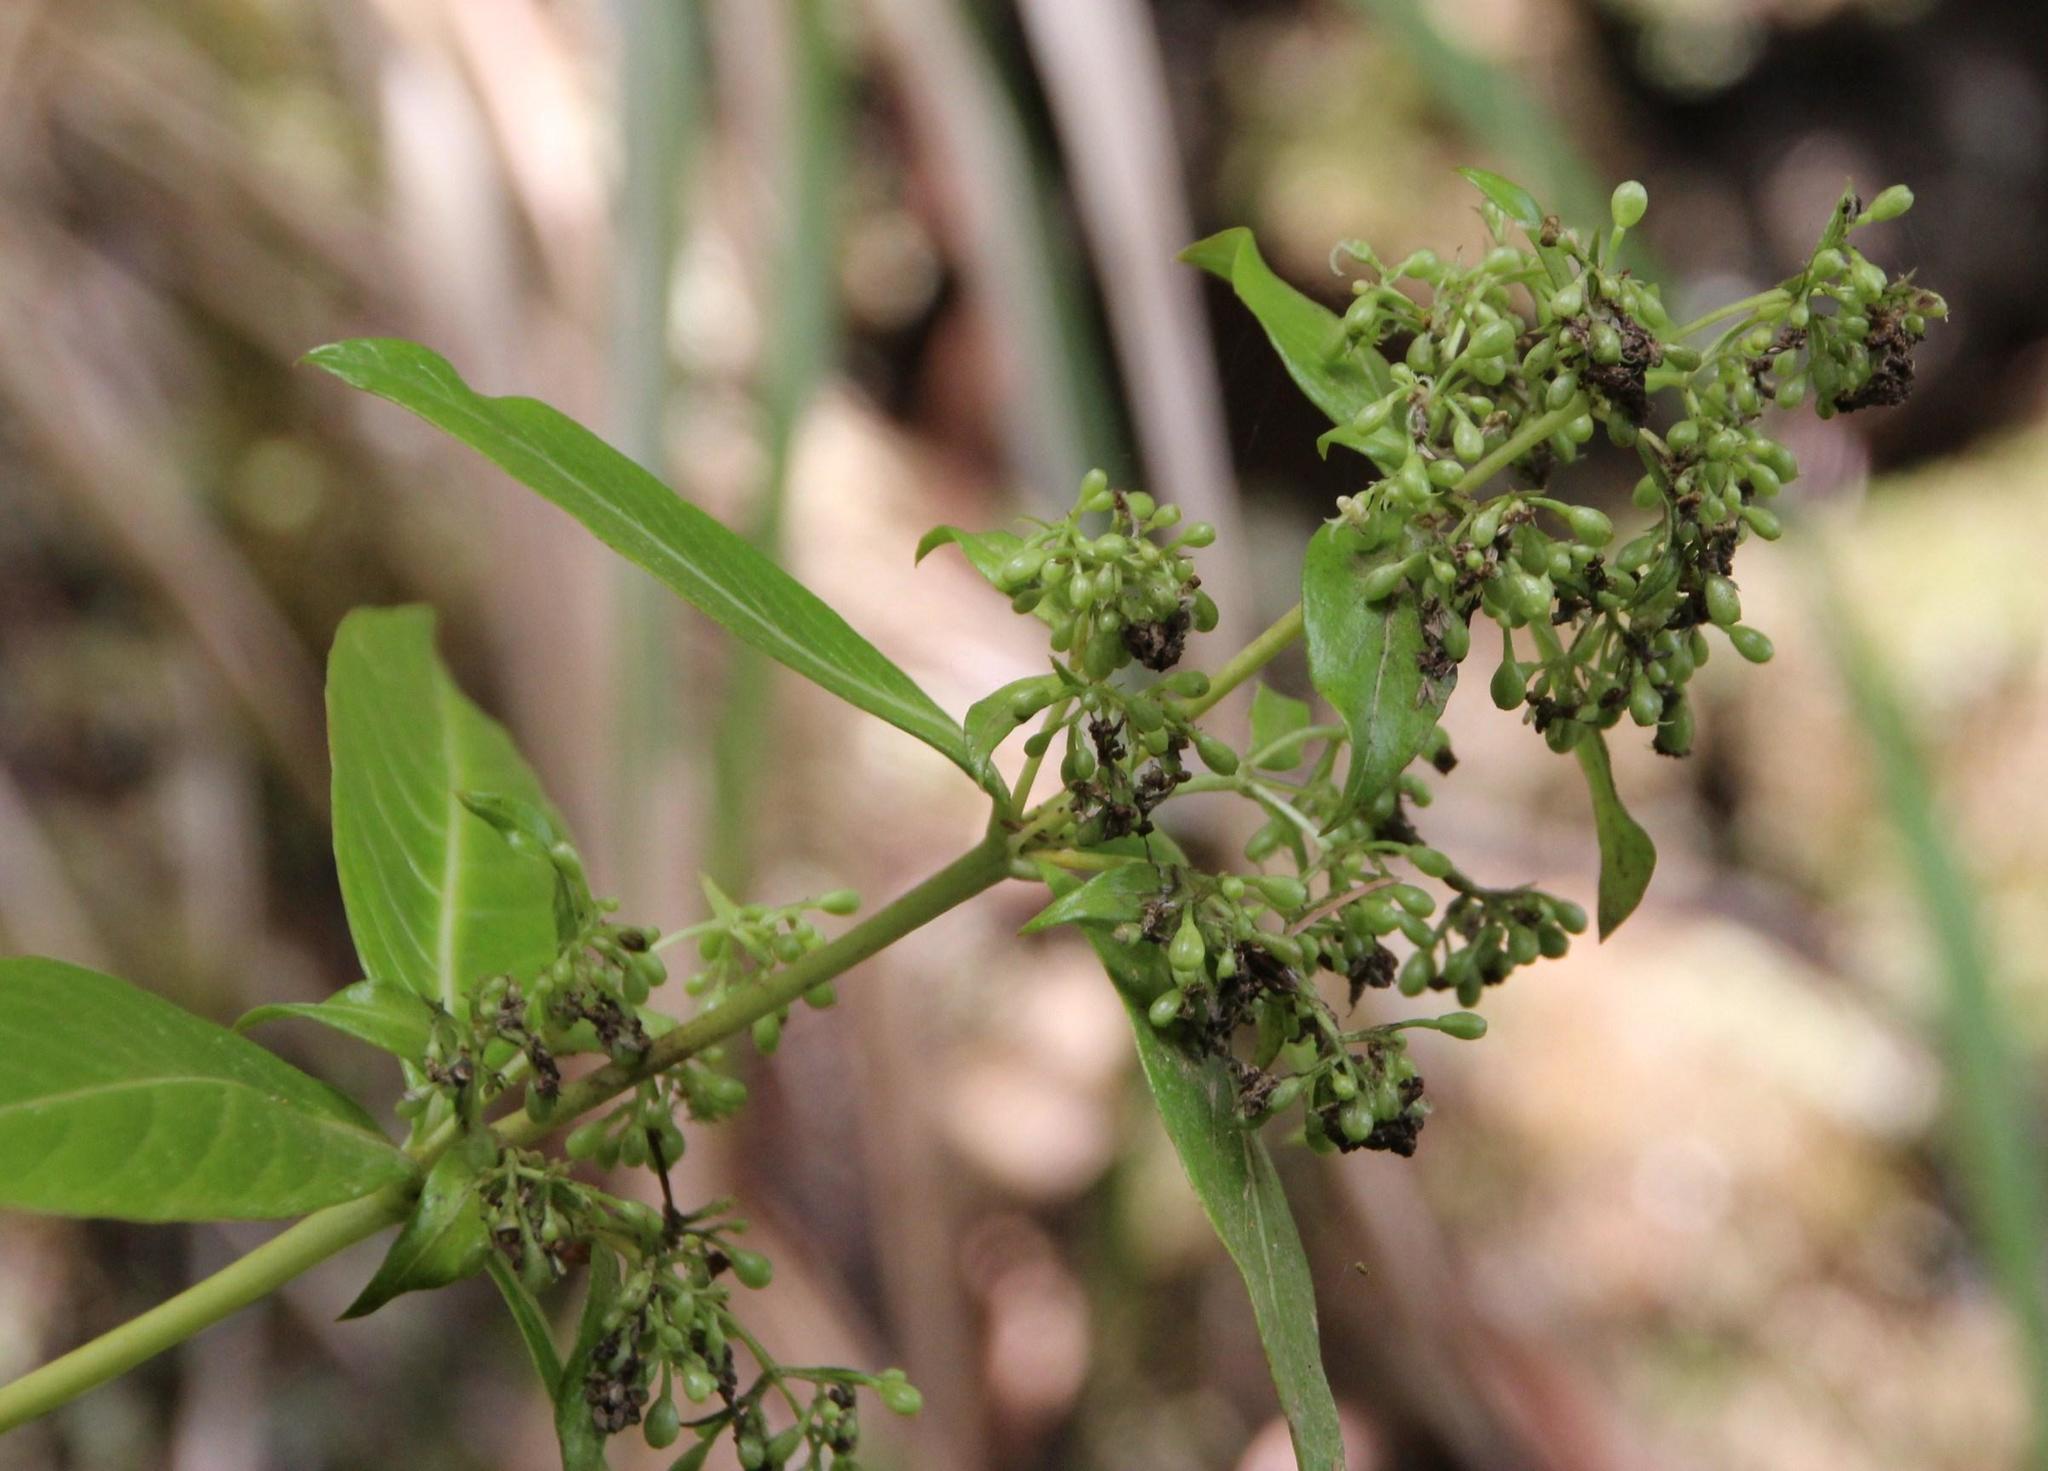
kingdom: Plantae
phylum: Tracheophyta
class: Magnoliopsida
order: Gentianales
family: Rubiaceae
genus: Phyllis
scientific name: Phyllis nobla
